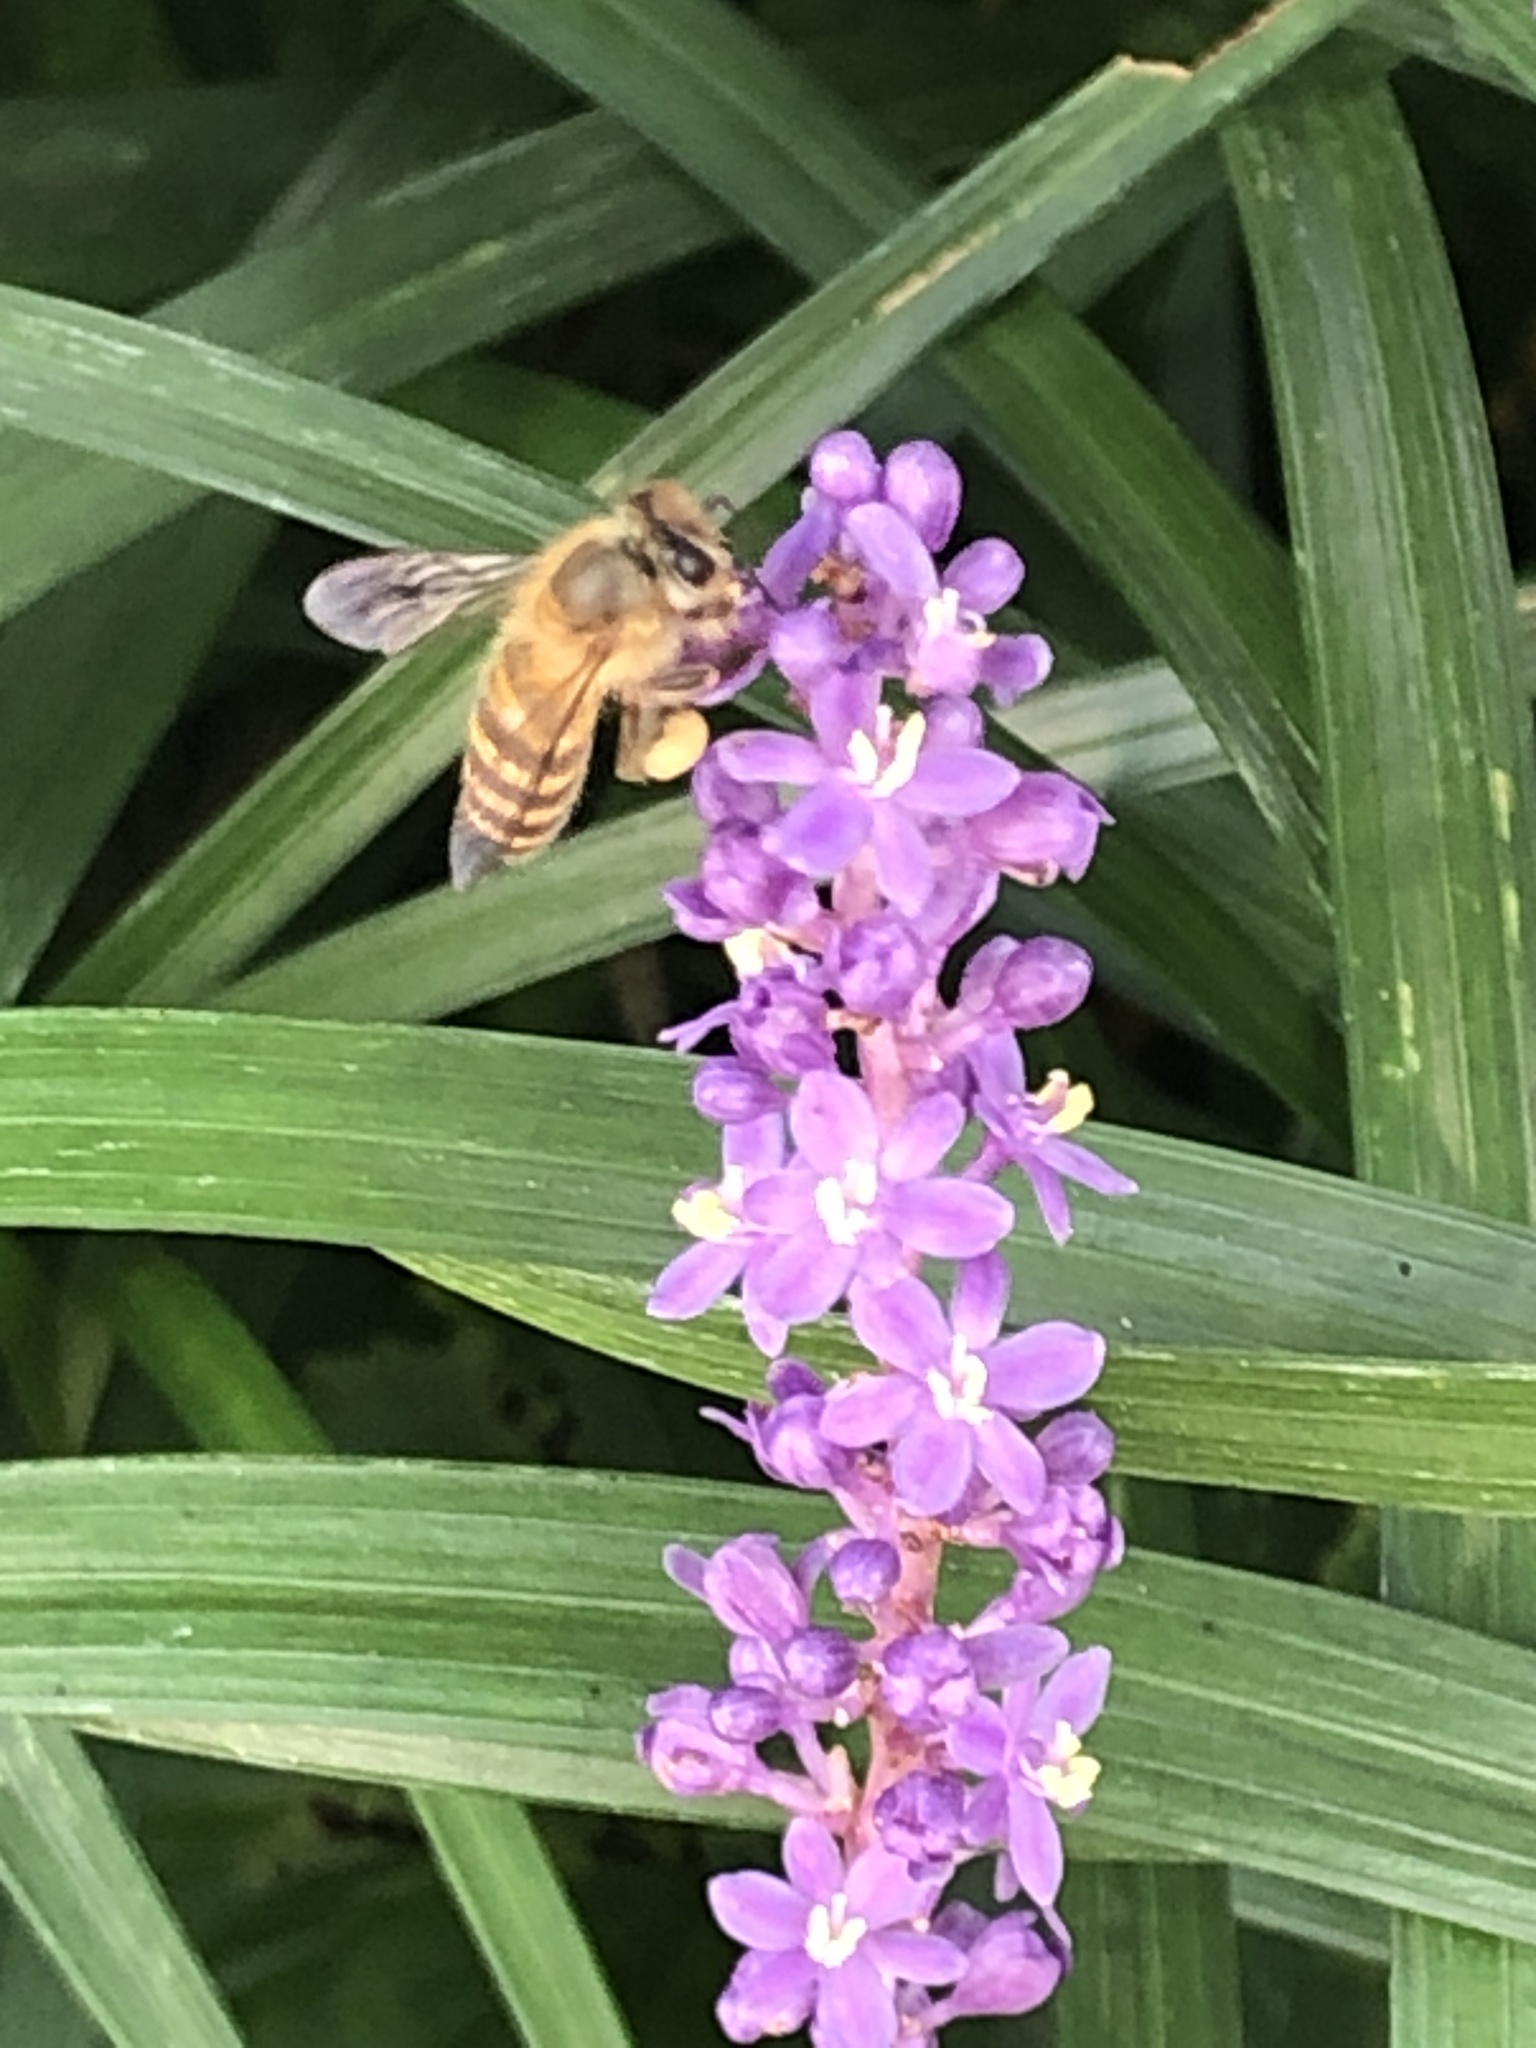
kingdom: Animalia
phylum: Arthropoda
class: Insecta
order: Hymenoptera
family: Apidae
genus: Apis
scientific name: Apis mellifera
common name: Honey bee
